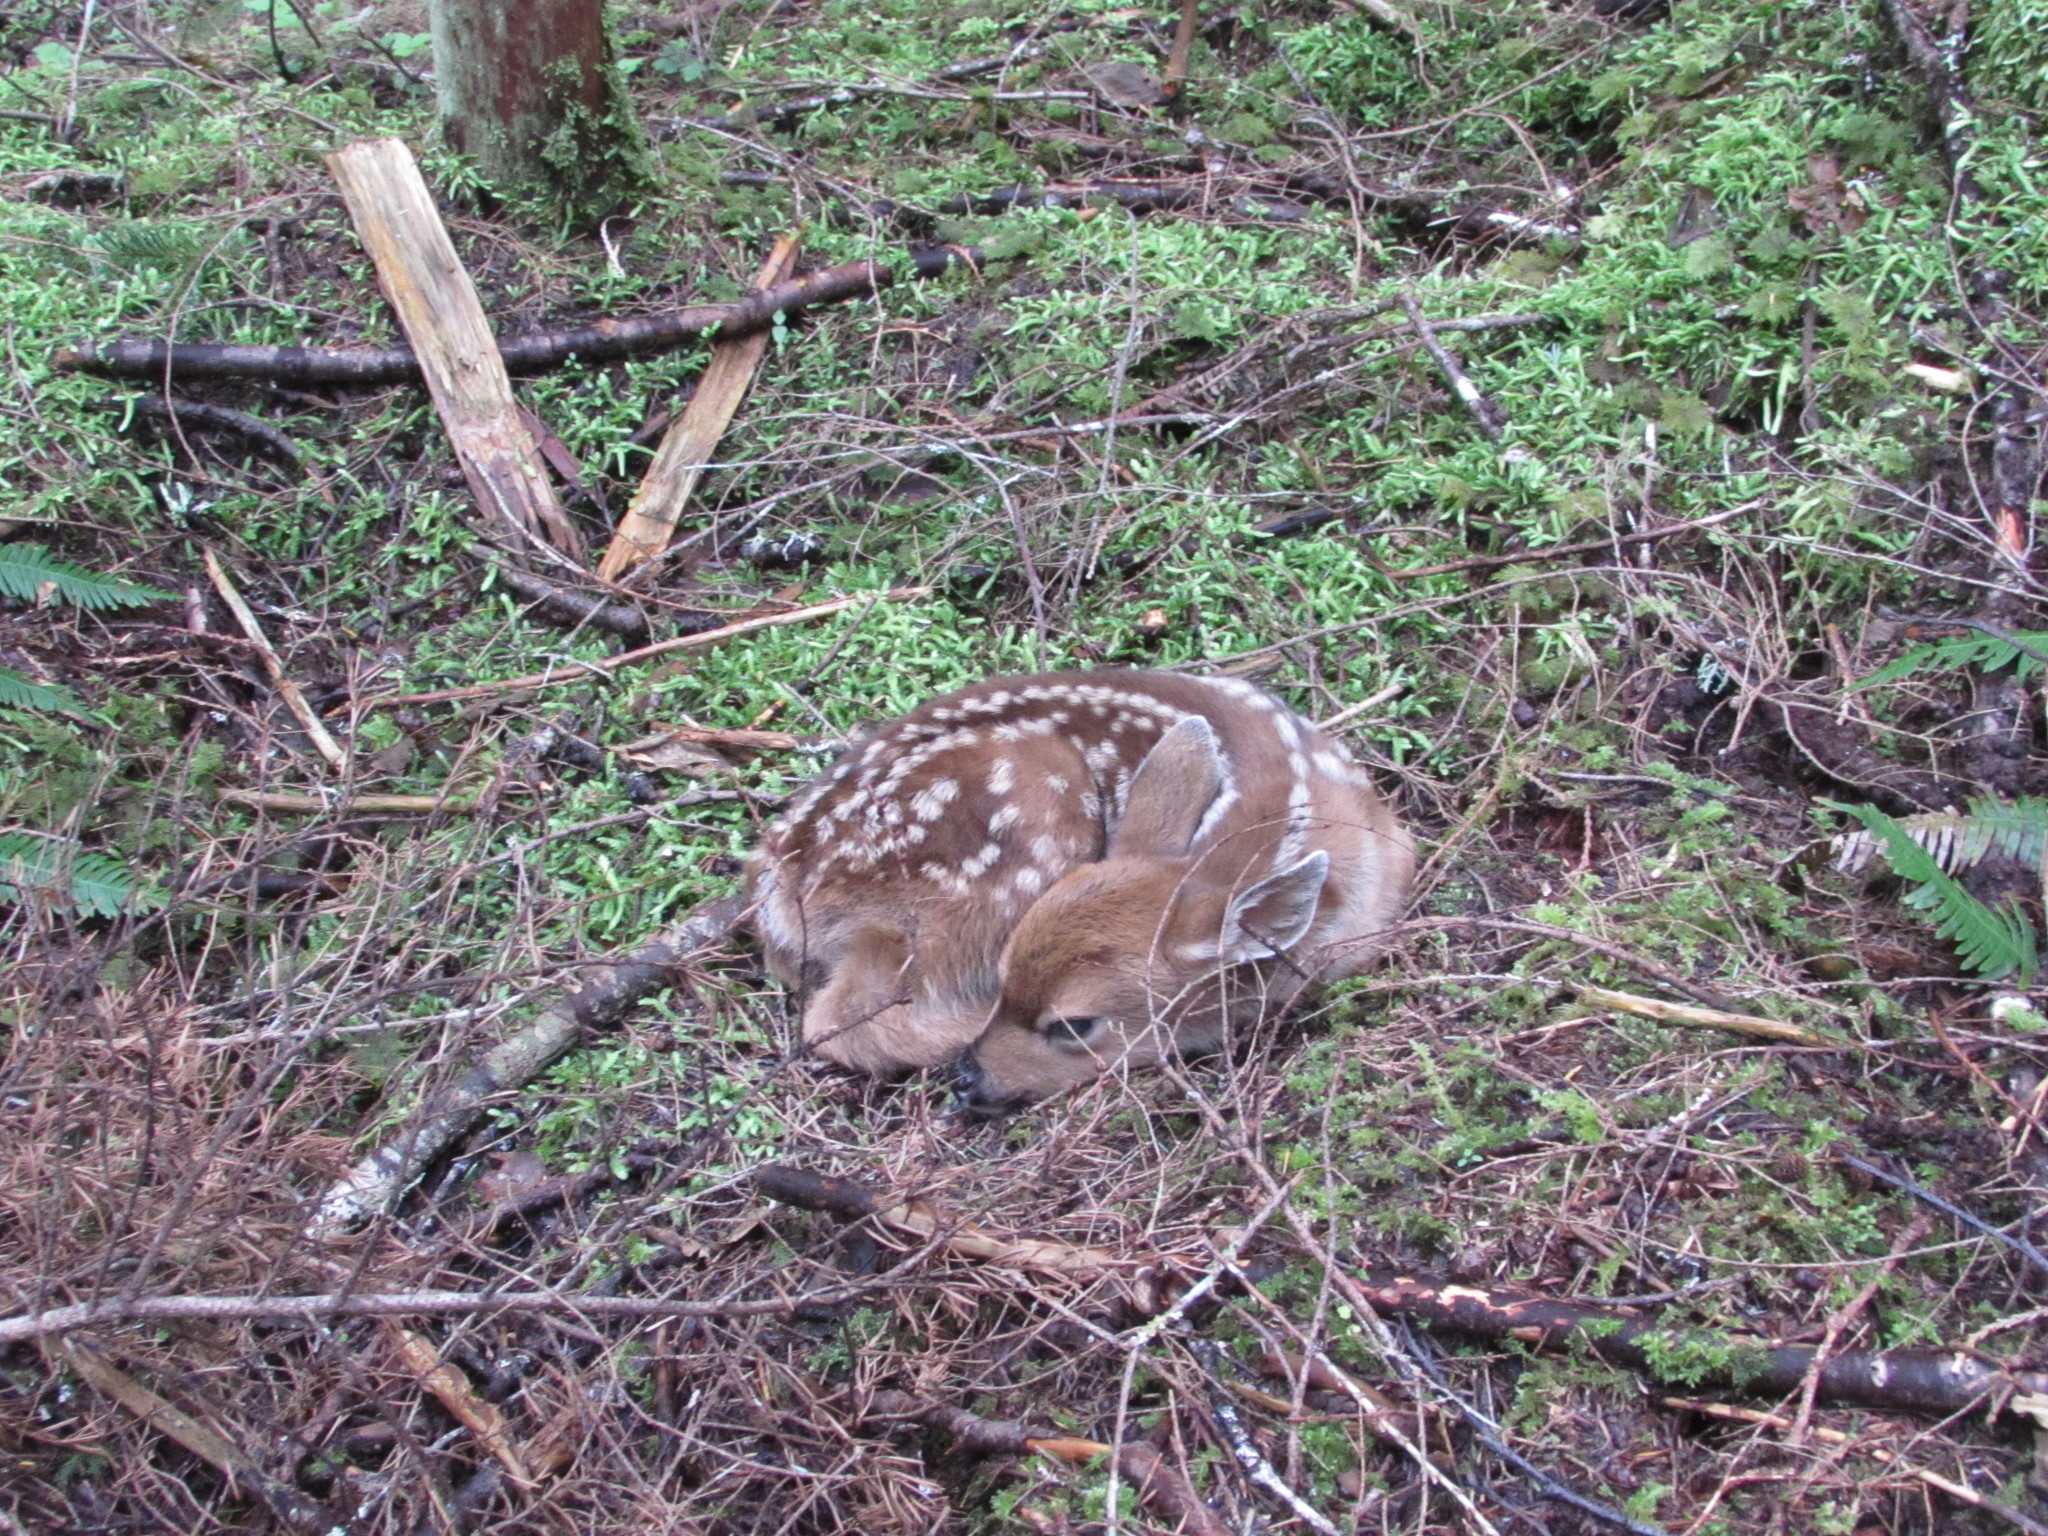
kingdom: Animalia
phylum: Chordata
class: Mammalia
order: Artiodactyla
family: Cervidae
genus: Odocoileus
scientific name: Odocoileus hemionus
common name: Mule deer
